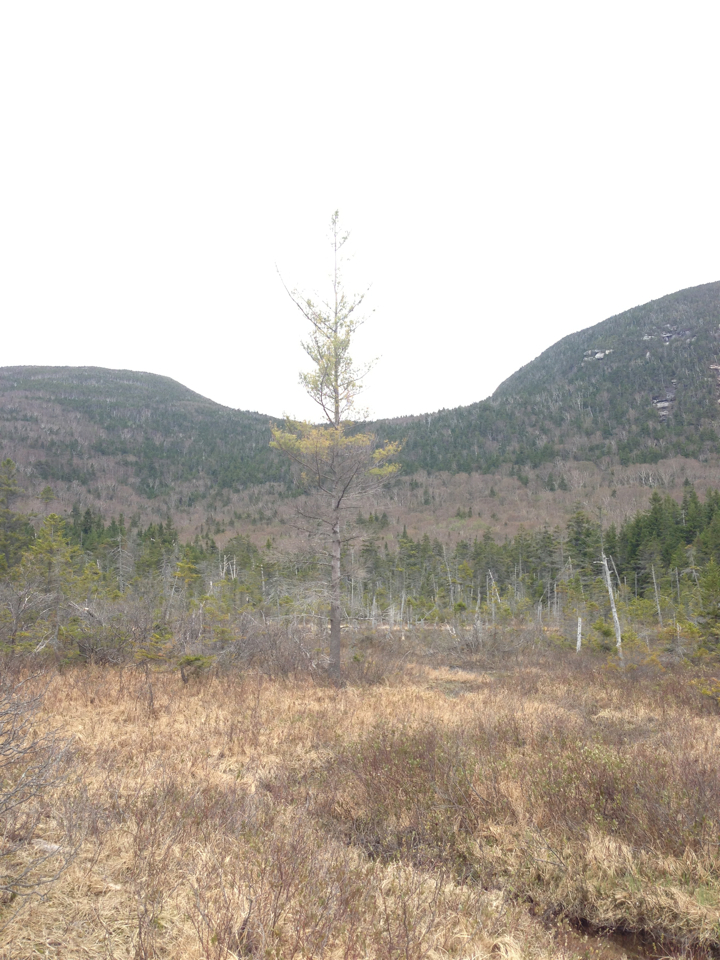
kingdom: Plantae
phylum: Tracheophyta
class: Pinopsida
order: Pinales
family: Pinaceae
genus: Pinus
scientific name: Pinus strobus
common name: Weymouth pine
